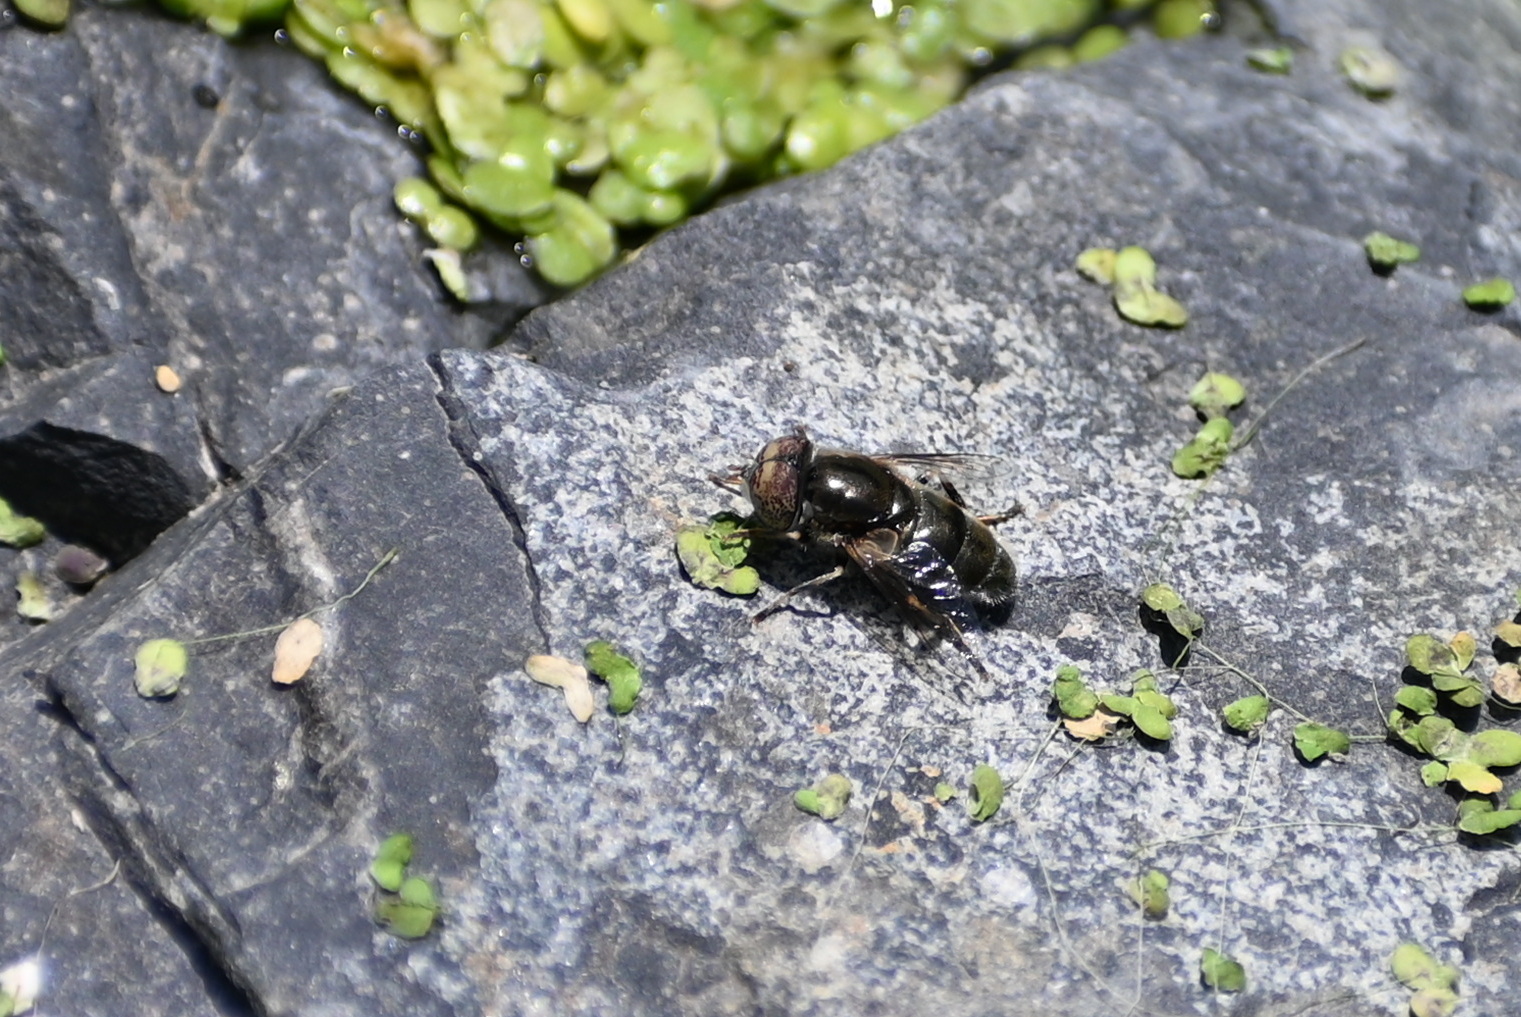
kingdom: Animalia
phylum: Arthropoda
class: Insecta
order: Diptera
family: Syrphidae
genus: Eristalinus
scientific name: Eristalinus aeneus
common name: Syrphid fly
